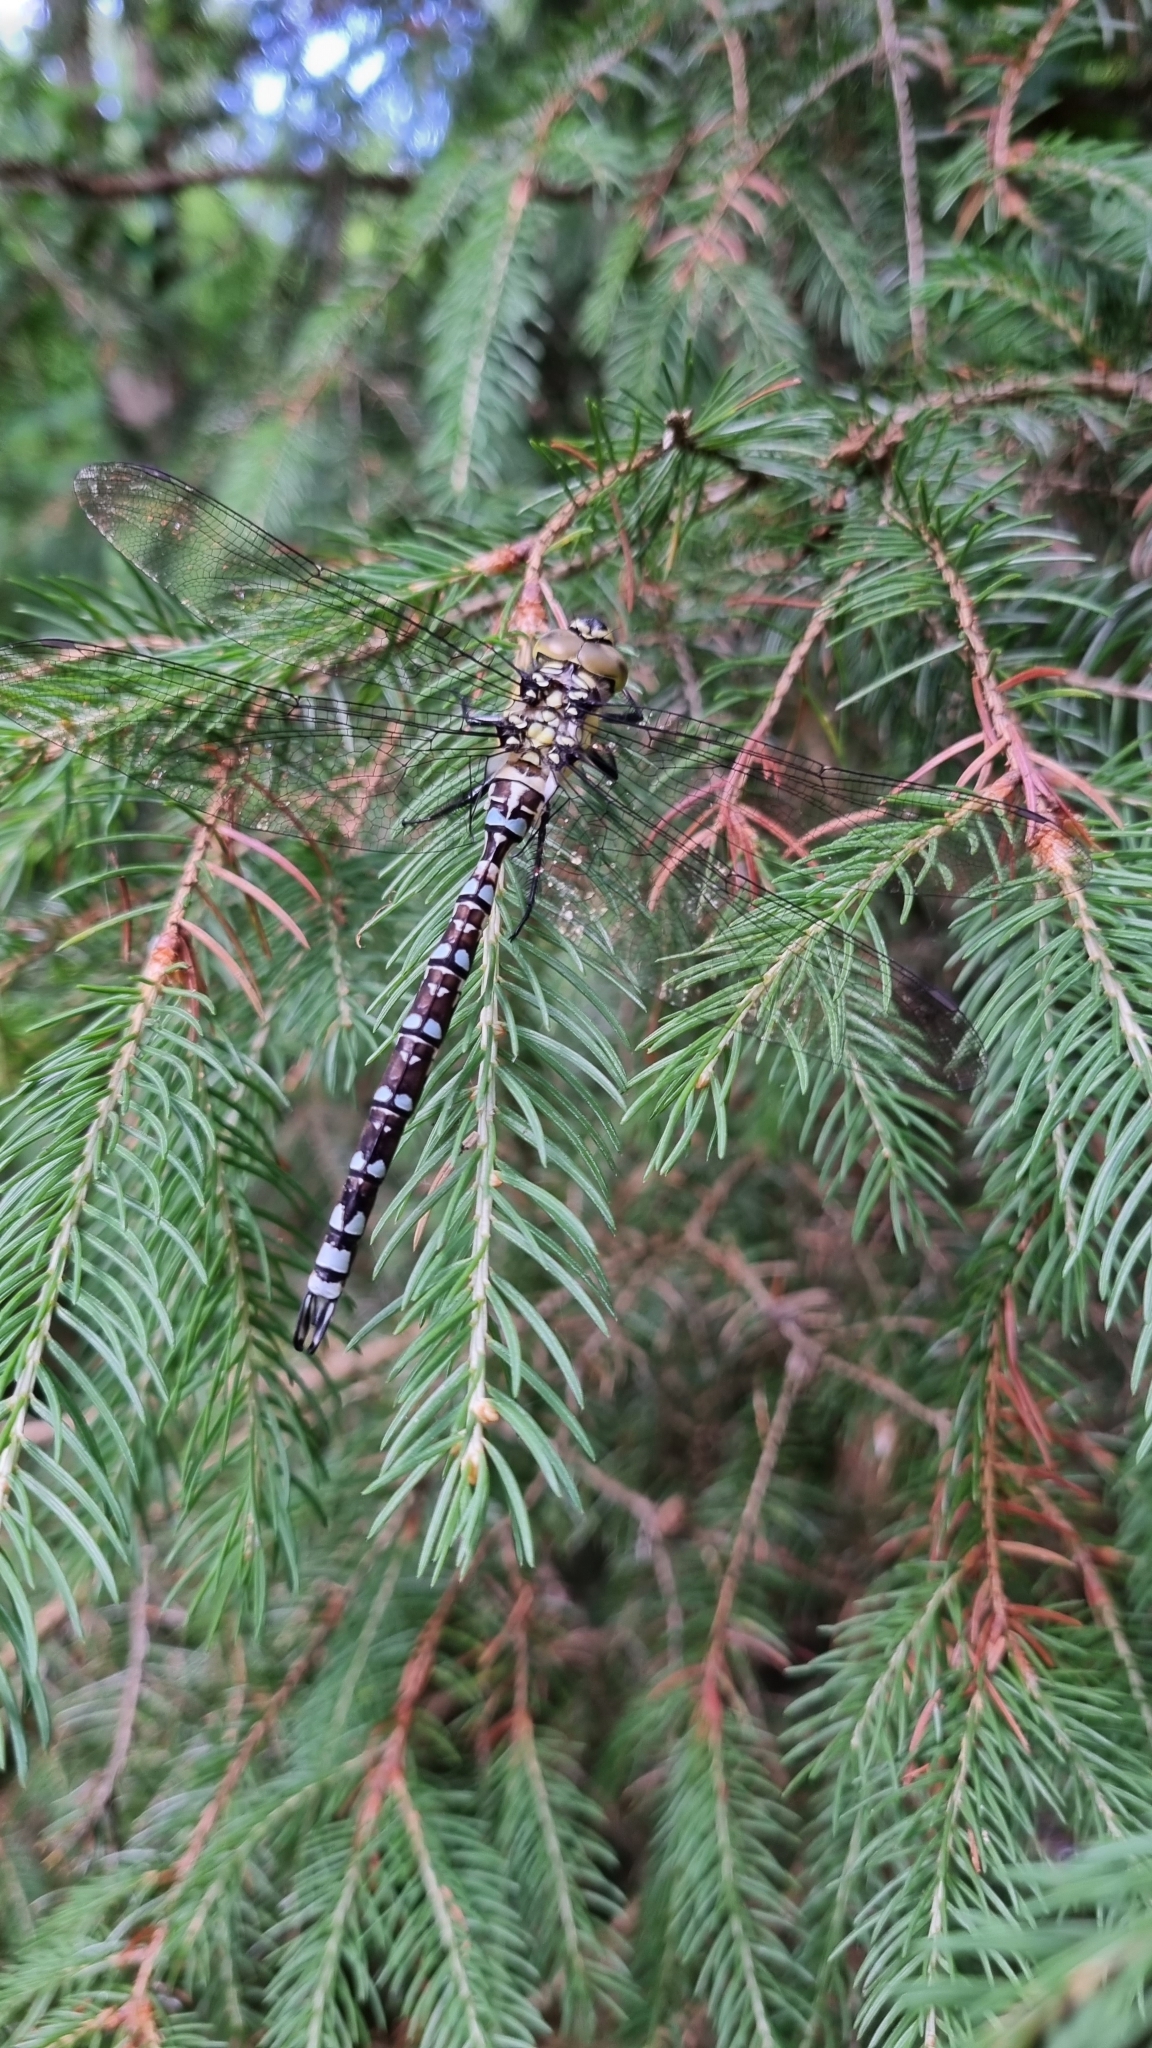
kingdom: Animalia
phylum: Arthropoda
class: Insecta
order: Odonata
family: Aeshnidae
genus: Aeshna
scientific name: Aeshna cyanea
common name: Southern hawker
